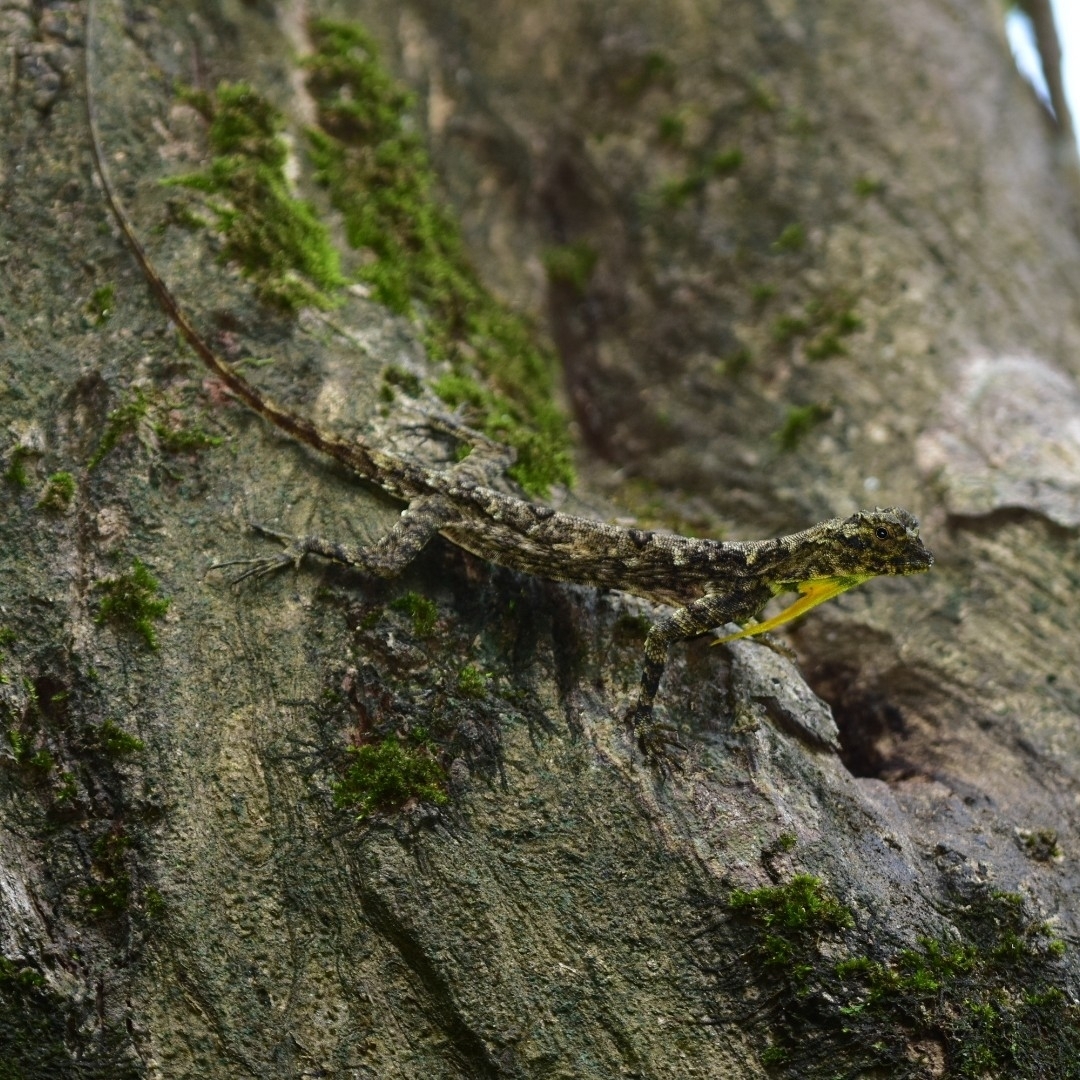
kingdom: Animalia
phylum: Chordata
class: Squamata
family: Agamidae
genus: Draco
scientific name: Draco dussumieri
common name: Southern flying lizard
